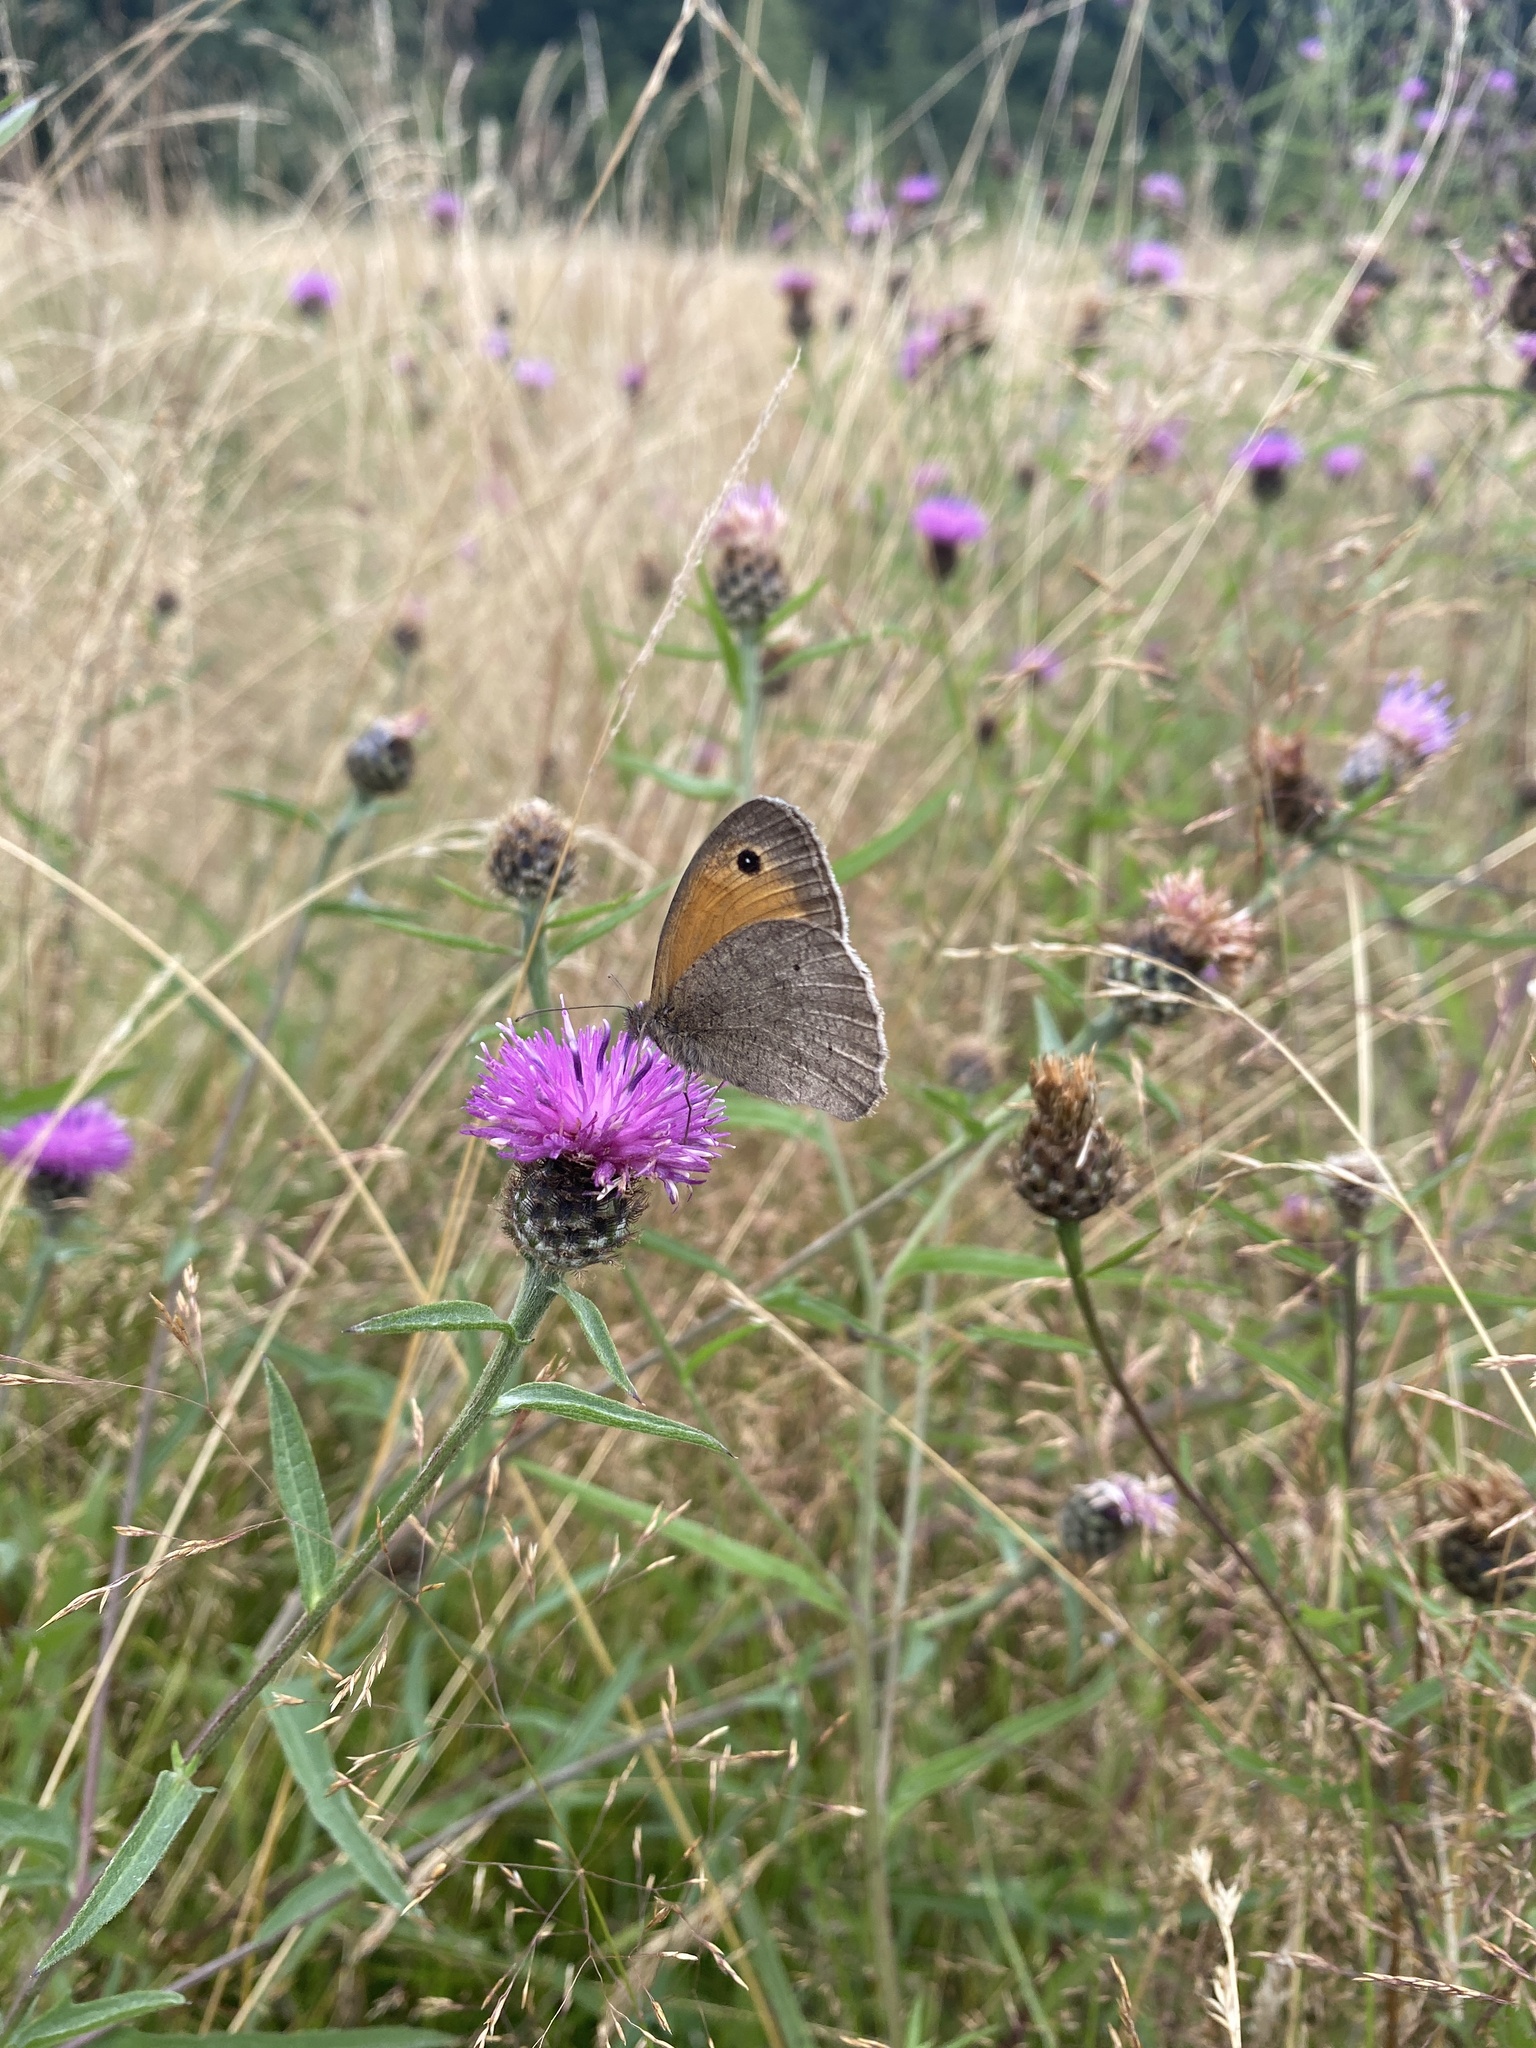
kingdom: Animalia
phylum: Arthropoda
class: Insecta
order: Lepidoptera
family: Nymphalidae
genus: Maniola
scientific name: Maniola jurtina
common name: Meadow brown
